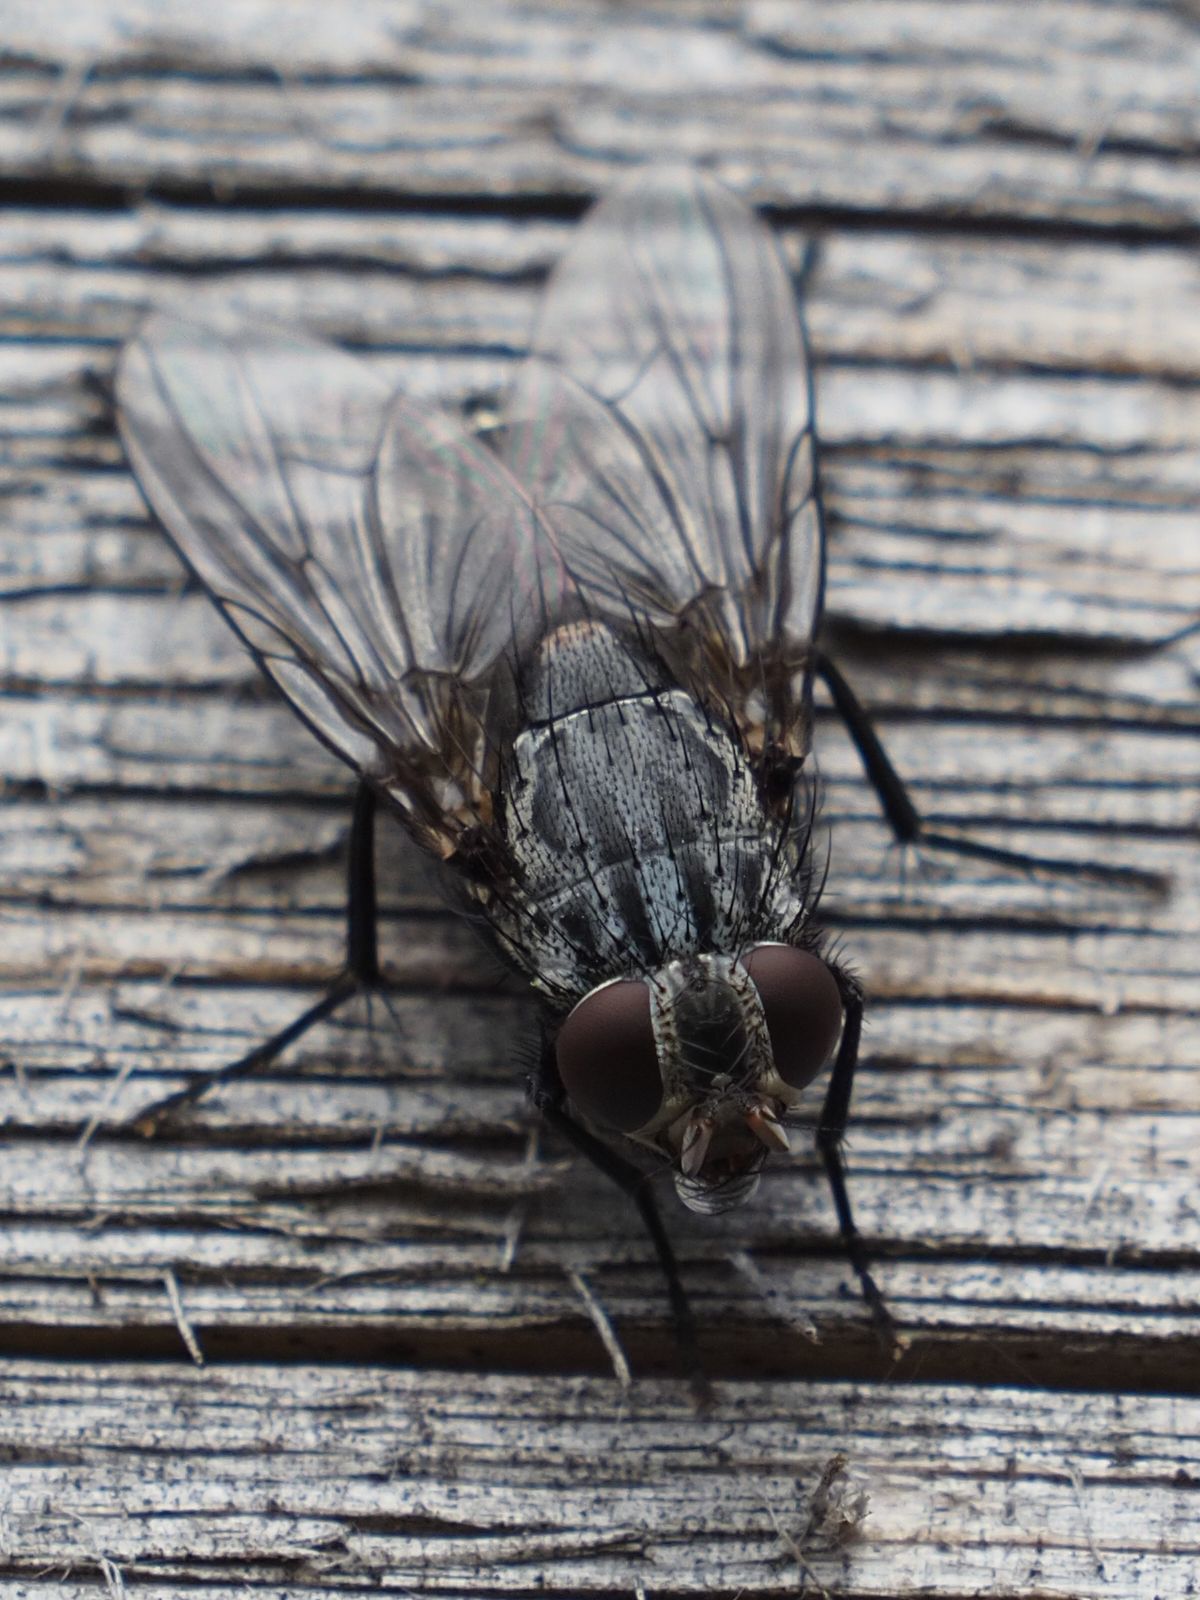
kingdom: Animalia
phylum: Arthropoda
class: Insecta
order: Diptera
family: Muscidae
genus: Muscina
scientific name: Muscina prolapsa
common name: Muscoid fly
